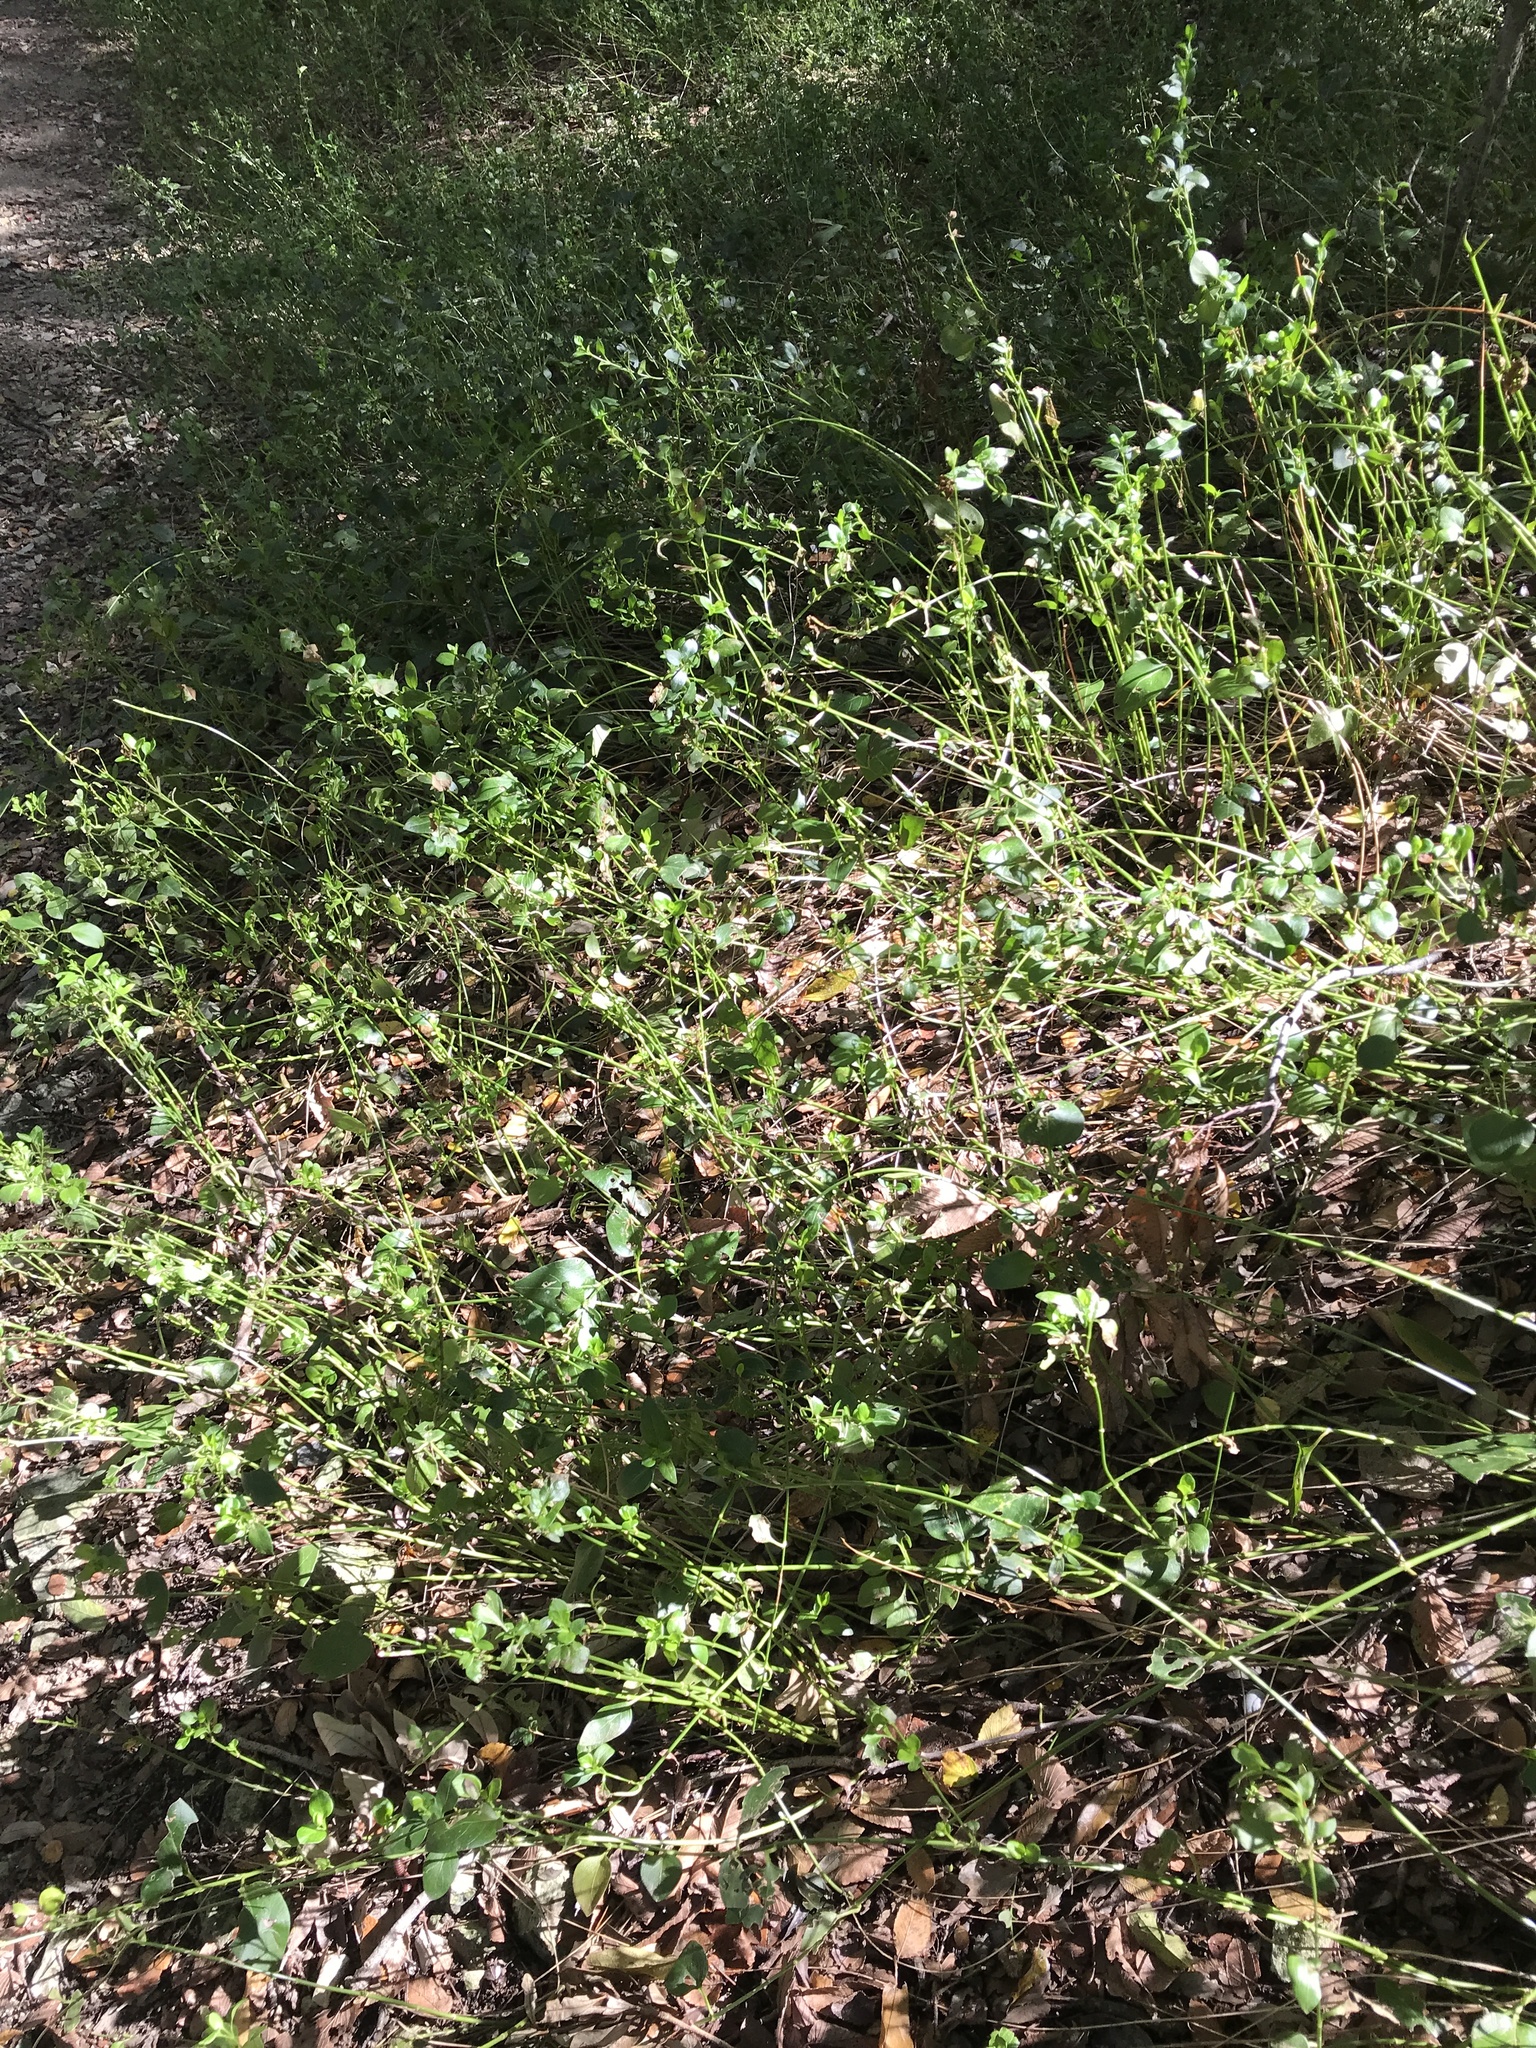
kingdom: Plantae
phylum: Tracheophyta
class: Magnoliopsida
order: Gentianales
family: Apocynaceae
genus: Vinca
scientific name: Vinca major
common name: Greater periwinkle
